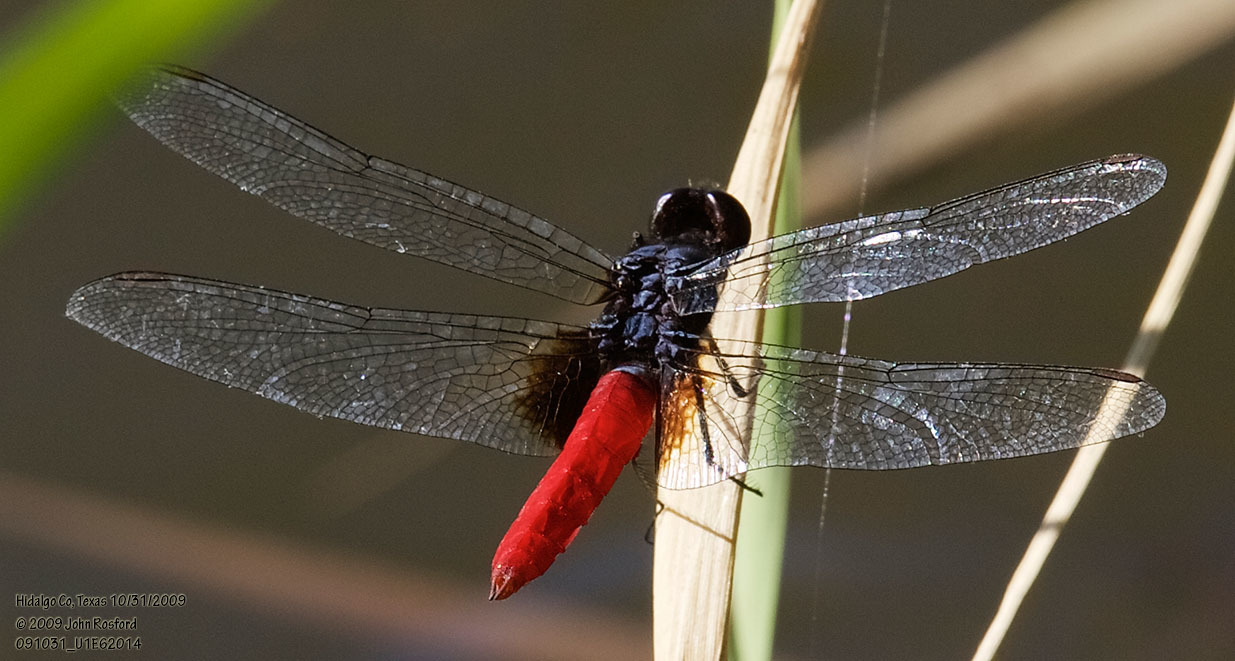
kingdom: Animalia
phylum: Arthropoda
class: Insecta
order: Odonata
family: Libellulidae
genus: Planiplax
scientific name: Planiplax sanguiniventris
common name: Mexican scarlet-tail
